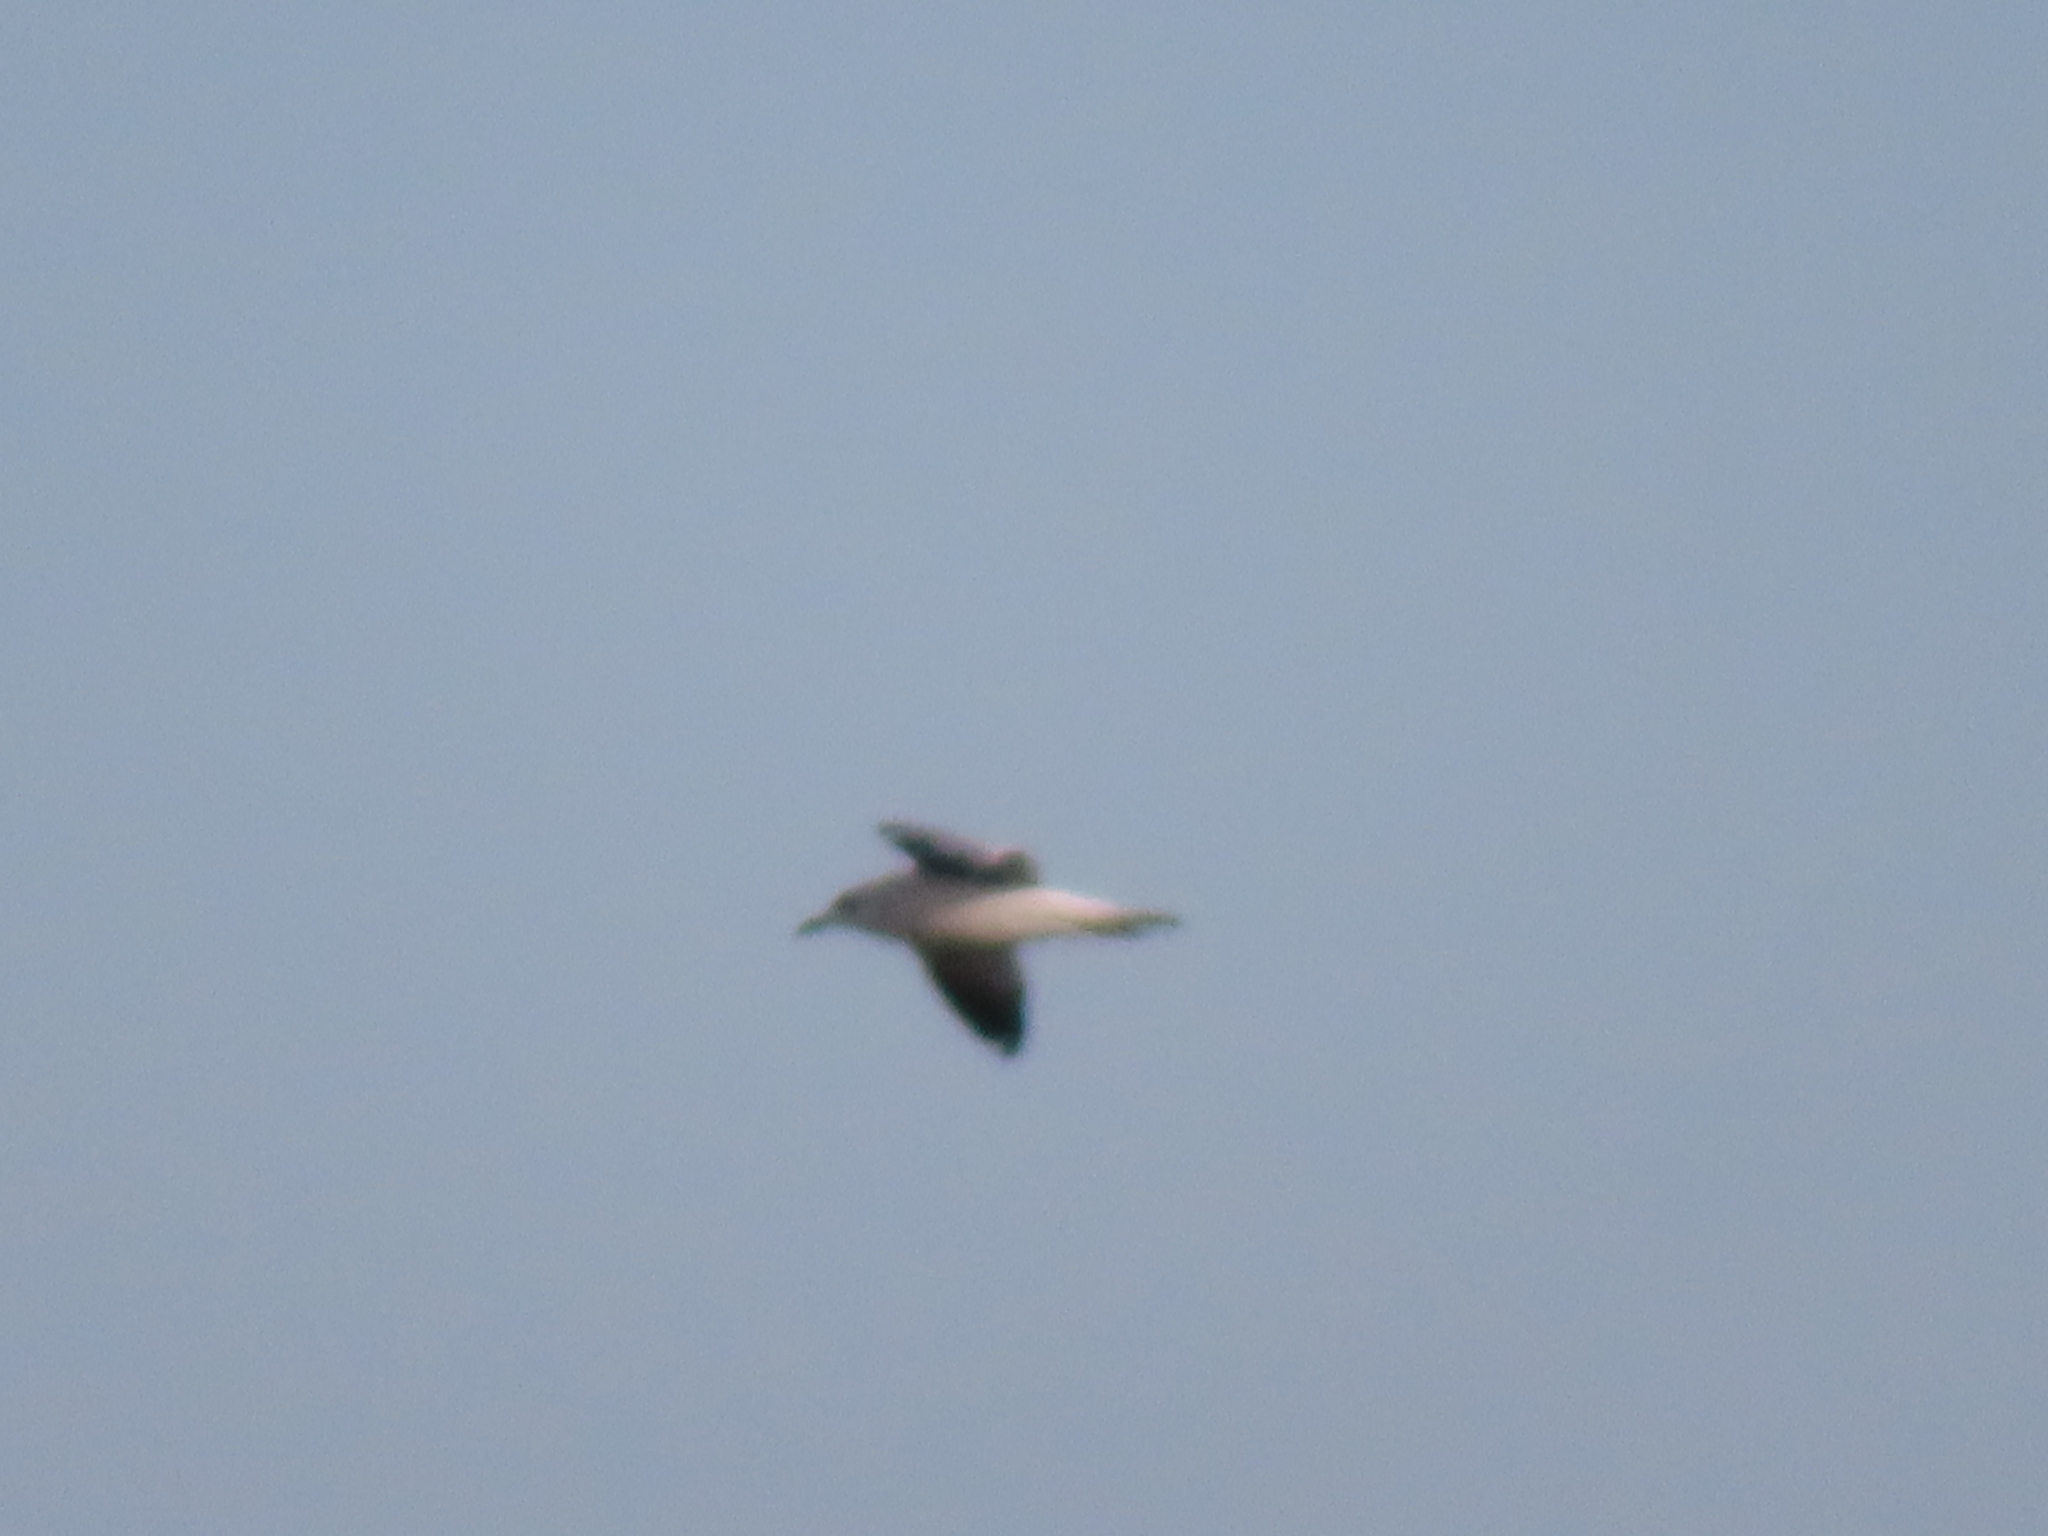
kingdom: Animalia
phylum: Chordata
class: Aves
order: Charadriiformes
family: Laridae
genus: Larus
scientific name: Larus delawarensis
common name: Ring-billed gull
